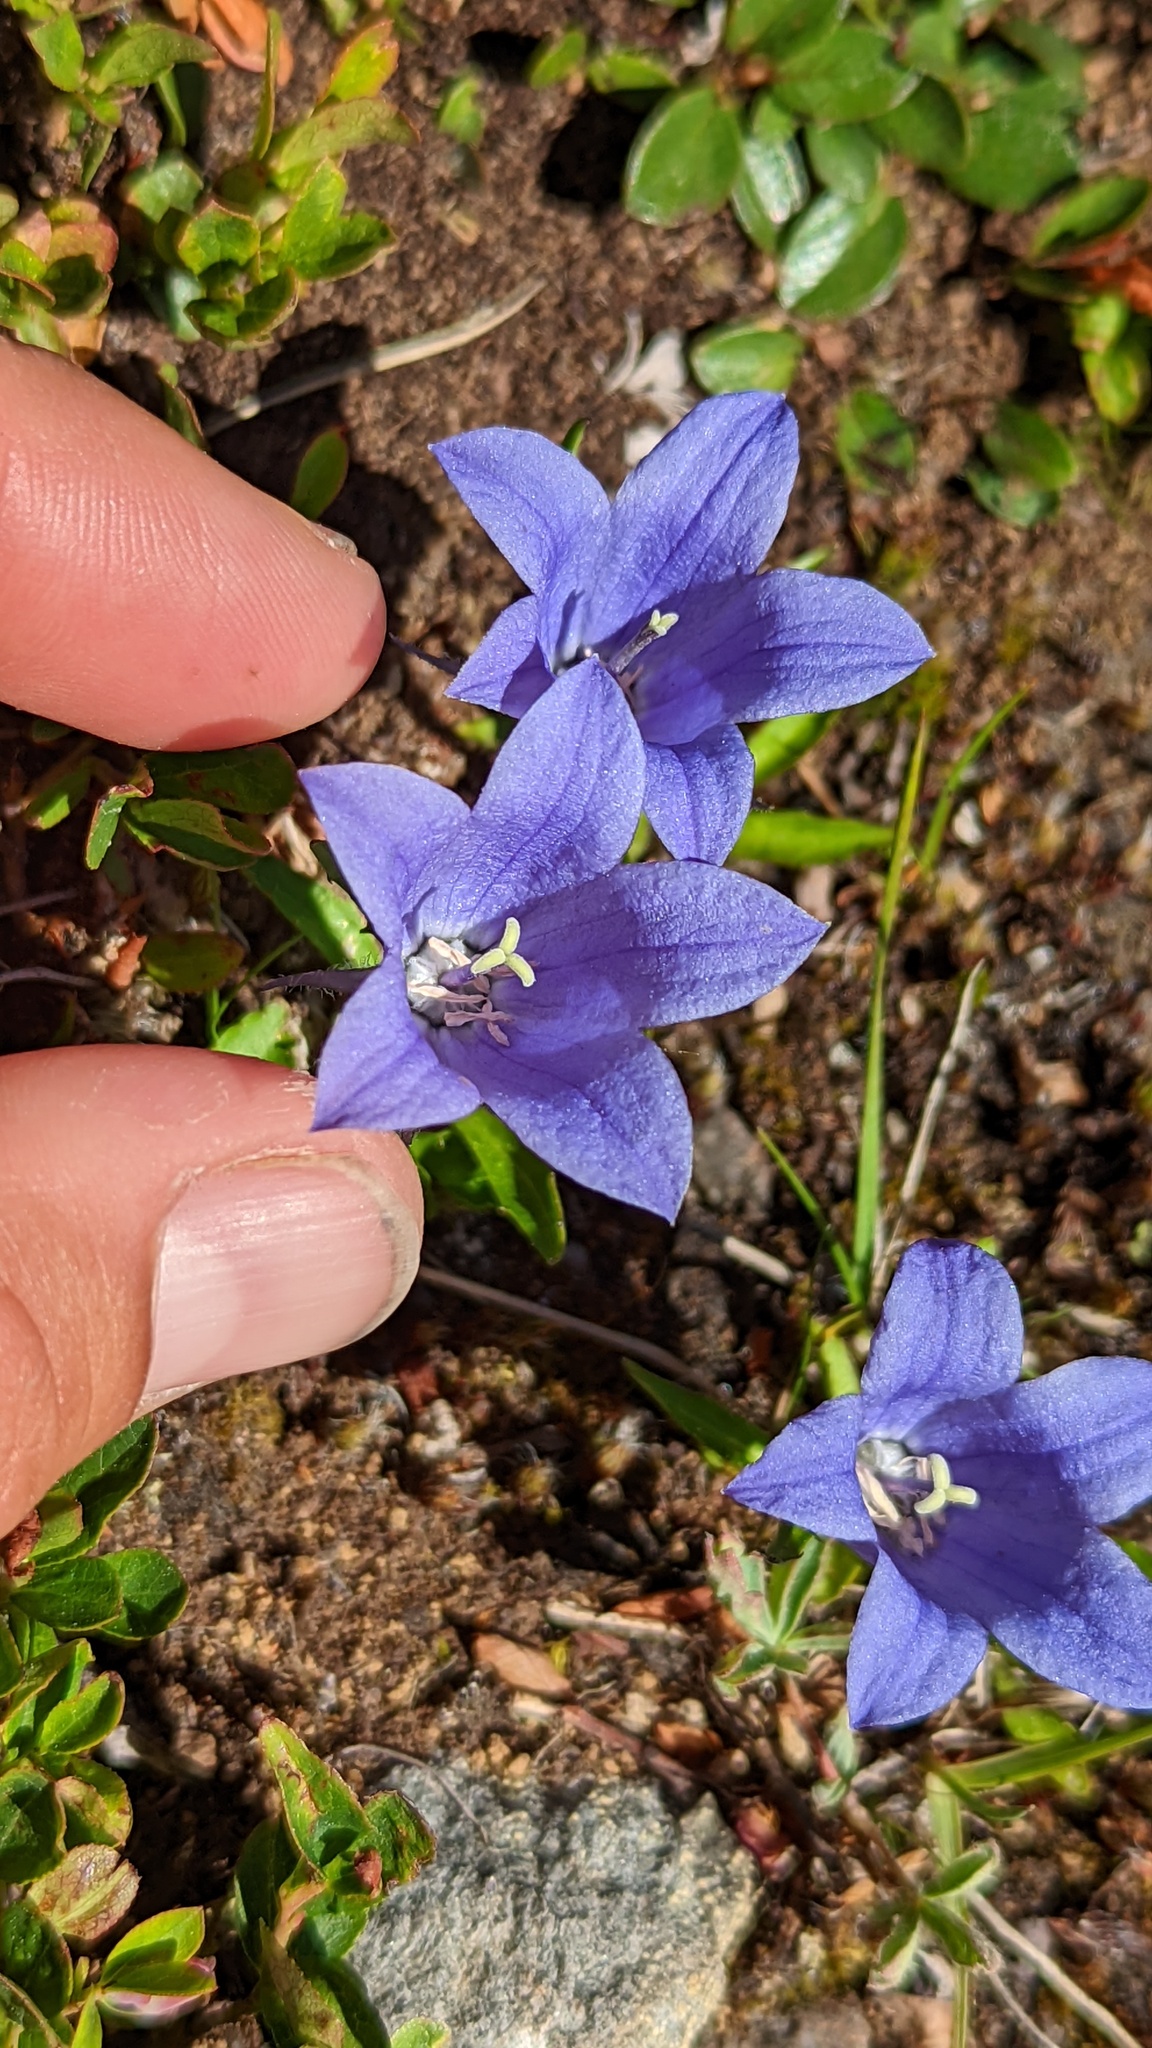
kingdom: Plantae
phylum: Tracheophyta
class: Magnoliopsida
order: Asterales
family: Campanulaceae
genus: Campanula
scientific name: Campanula lasiocarpa
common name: Mountain harebell
